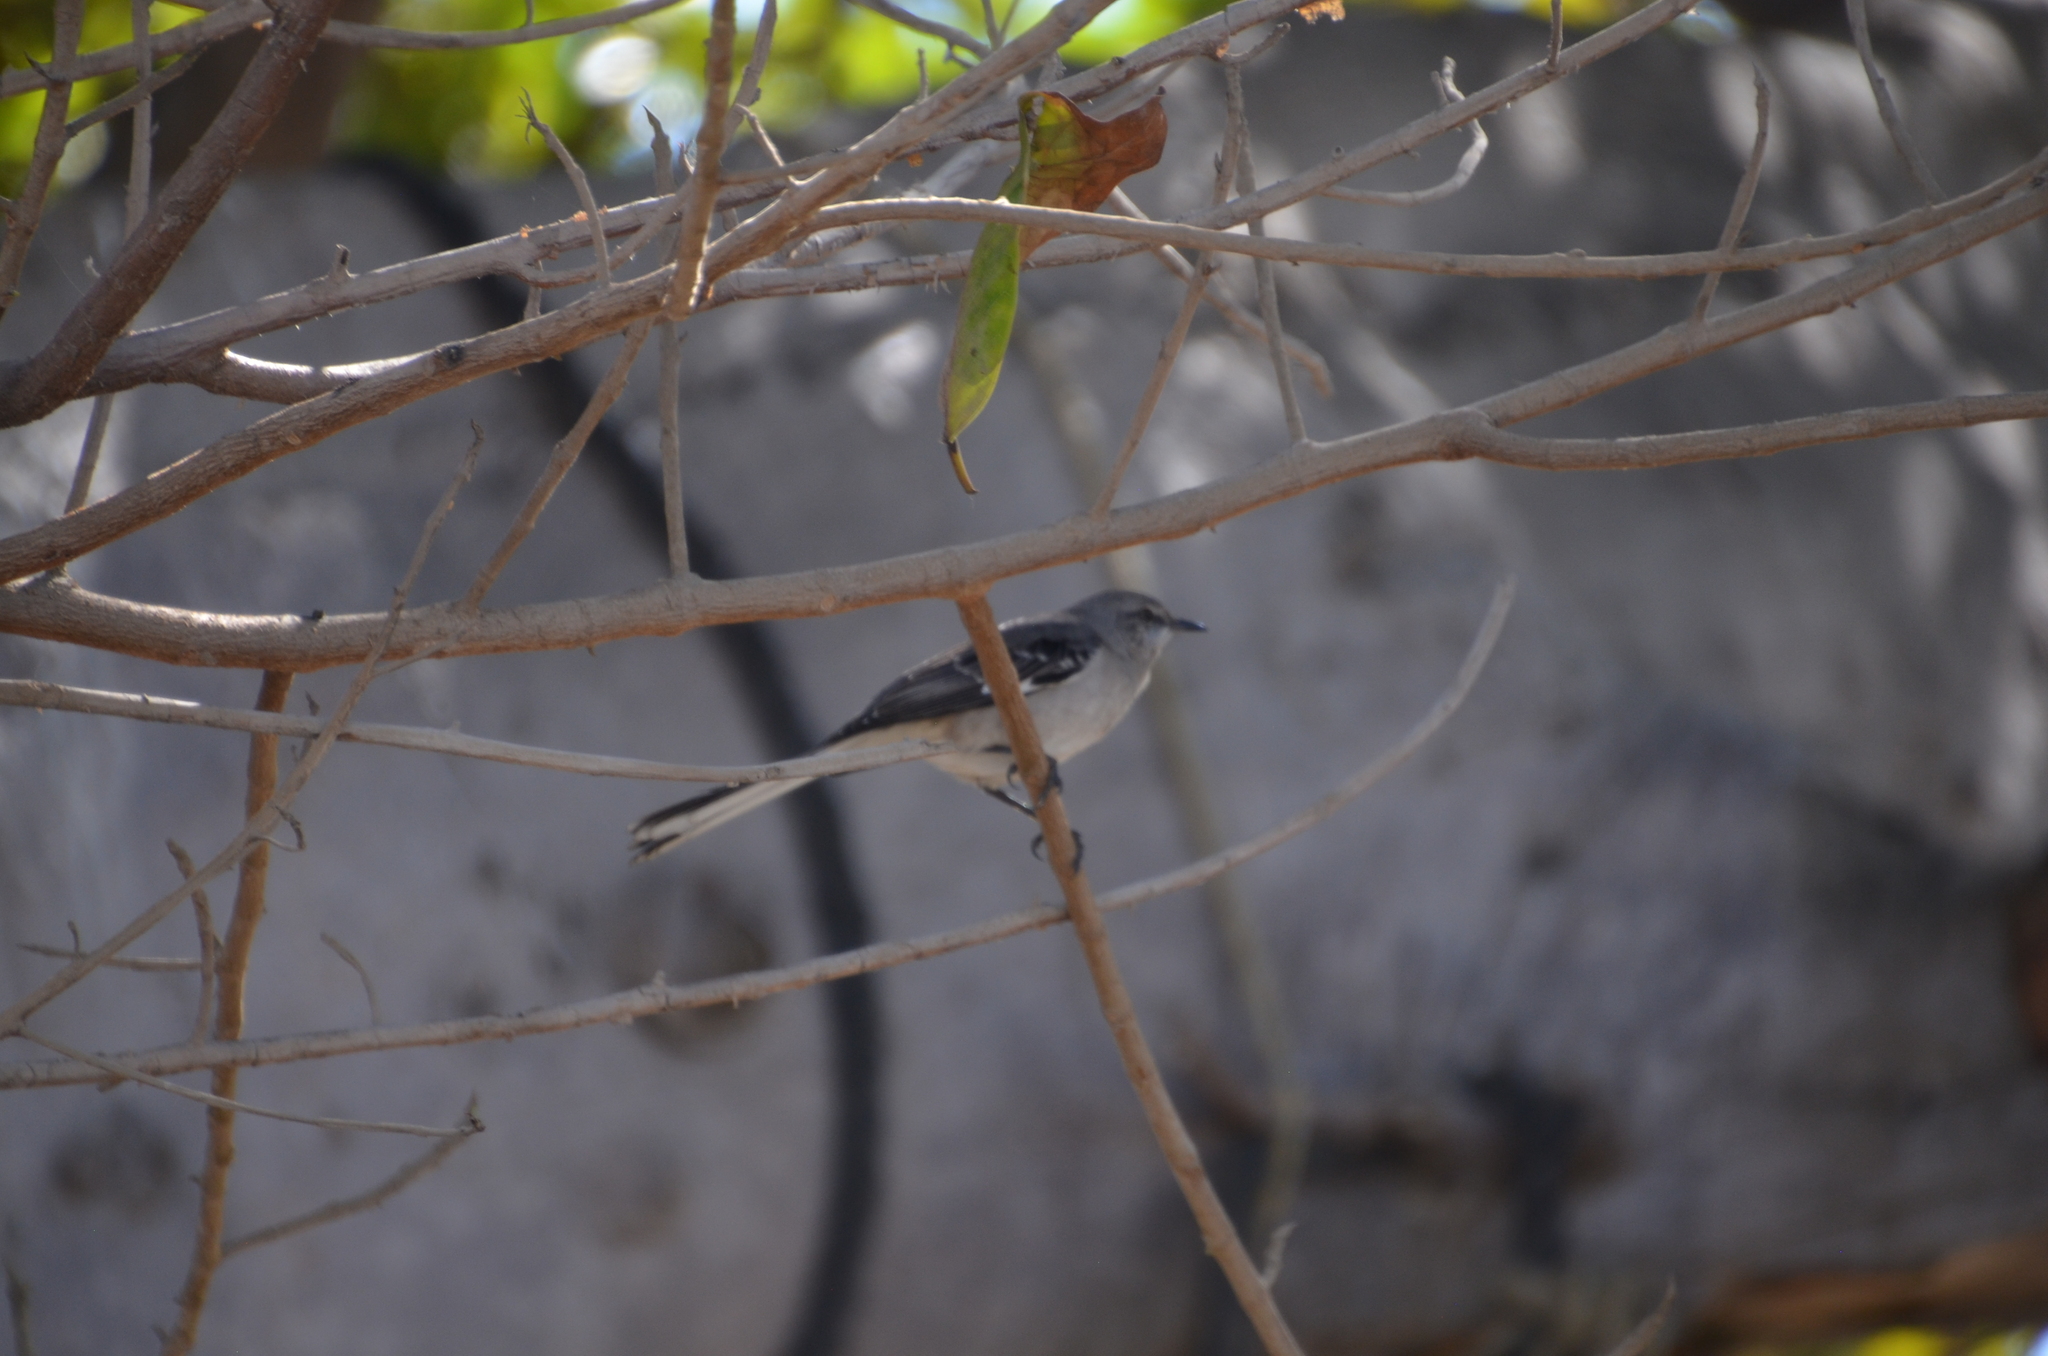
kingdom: Animalia
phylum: Chordata
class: Aves
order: Passeriformes
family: Mimidae
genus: Mimus
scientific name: Mimus polyglottos
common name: Northern mockingbird
